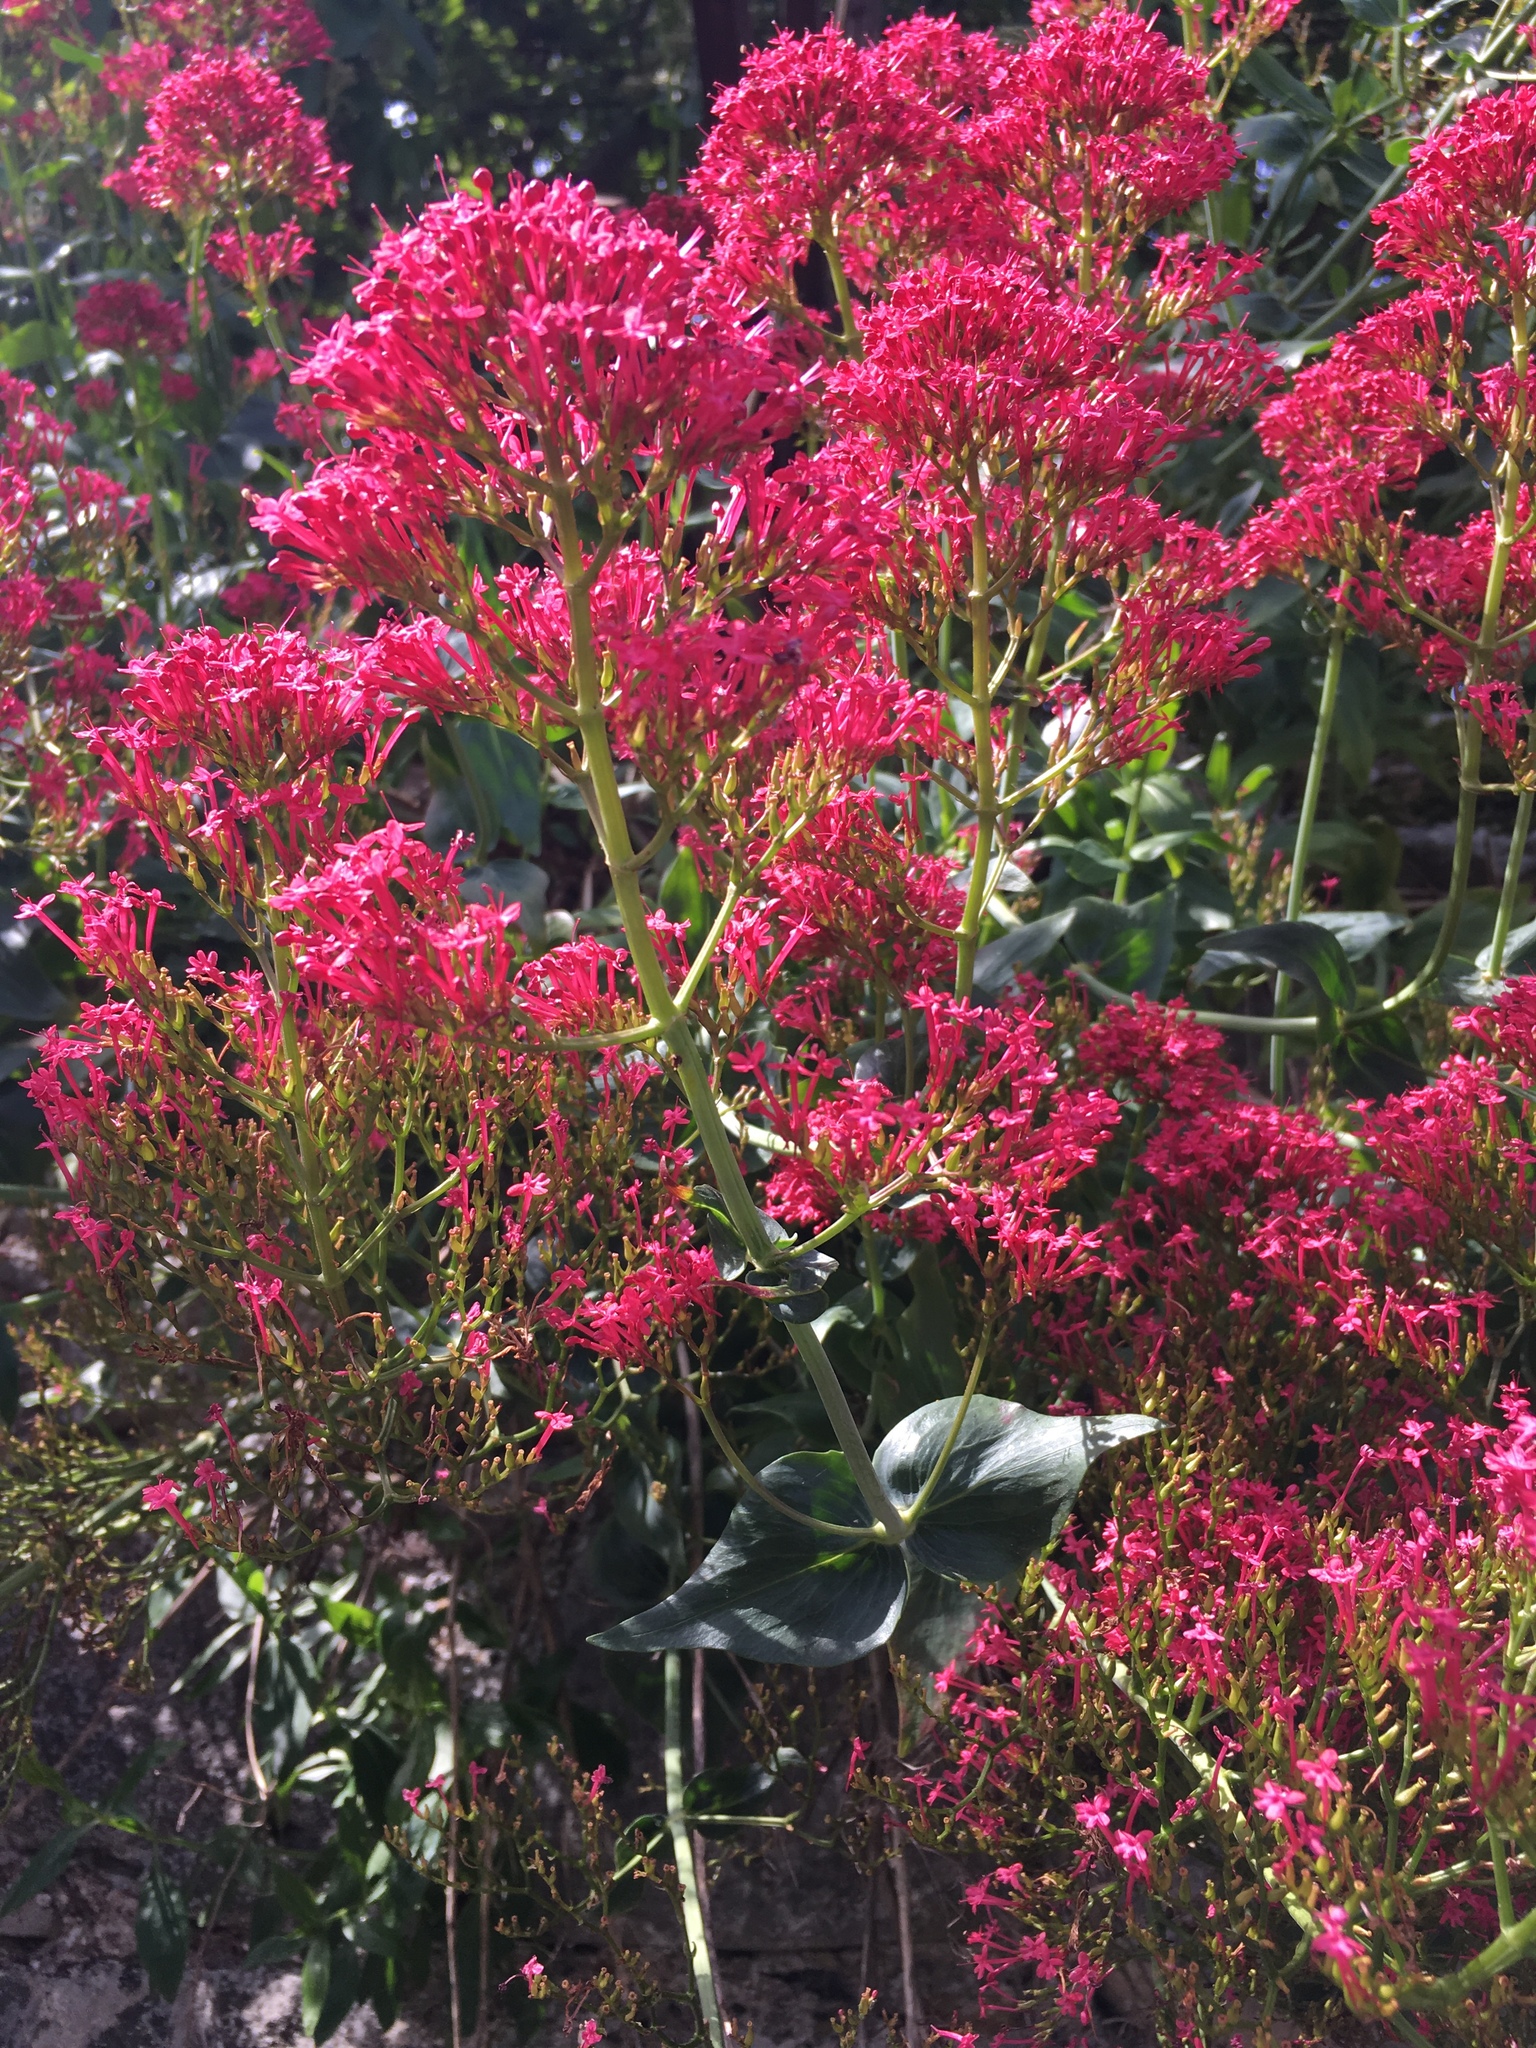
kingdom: Plantae
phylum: Tracheophyta
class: Magnoliopsida
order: Dipsacales
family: Caprifoliaceae
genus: Centranthus
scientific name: Centranthus ruber
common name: Red valerian
